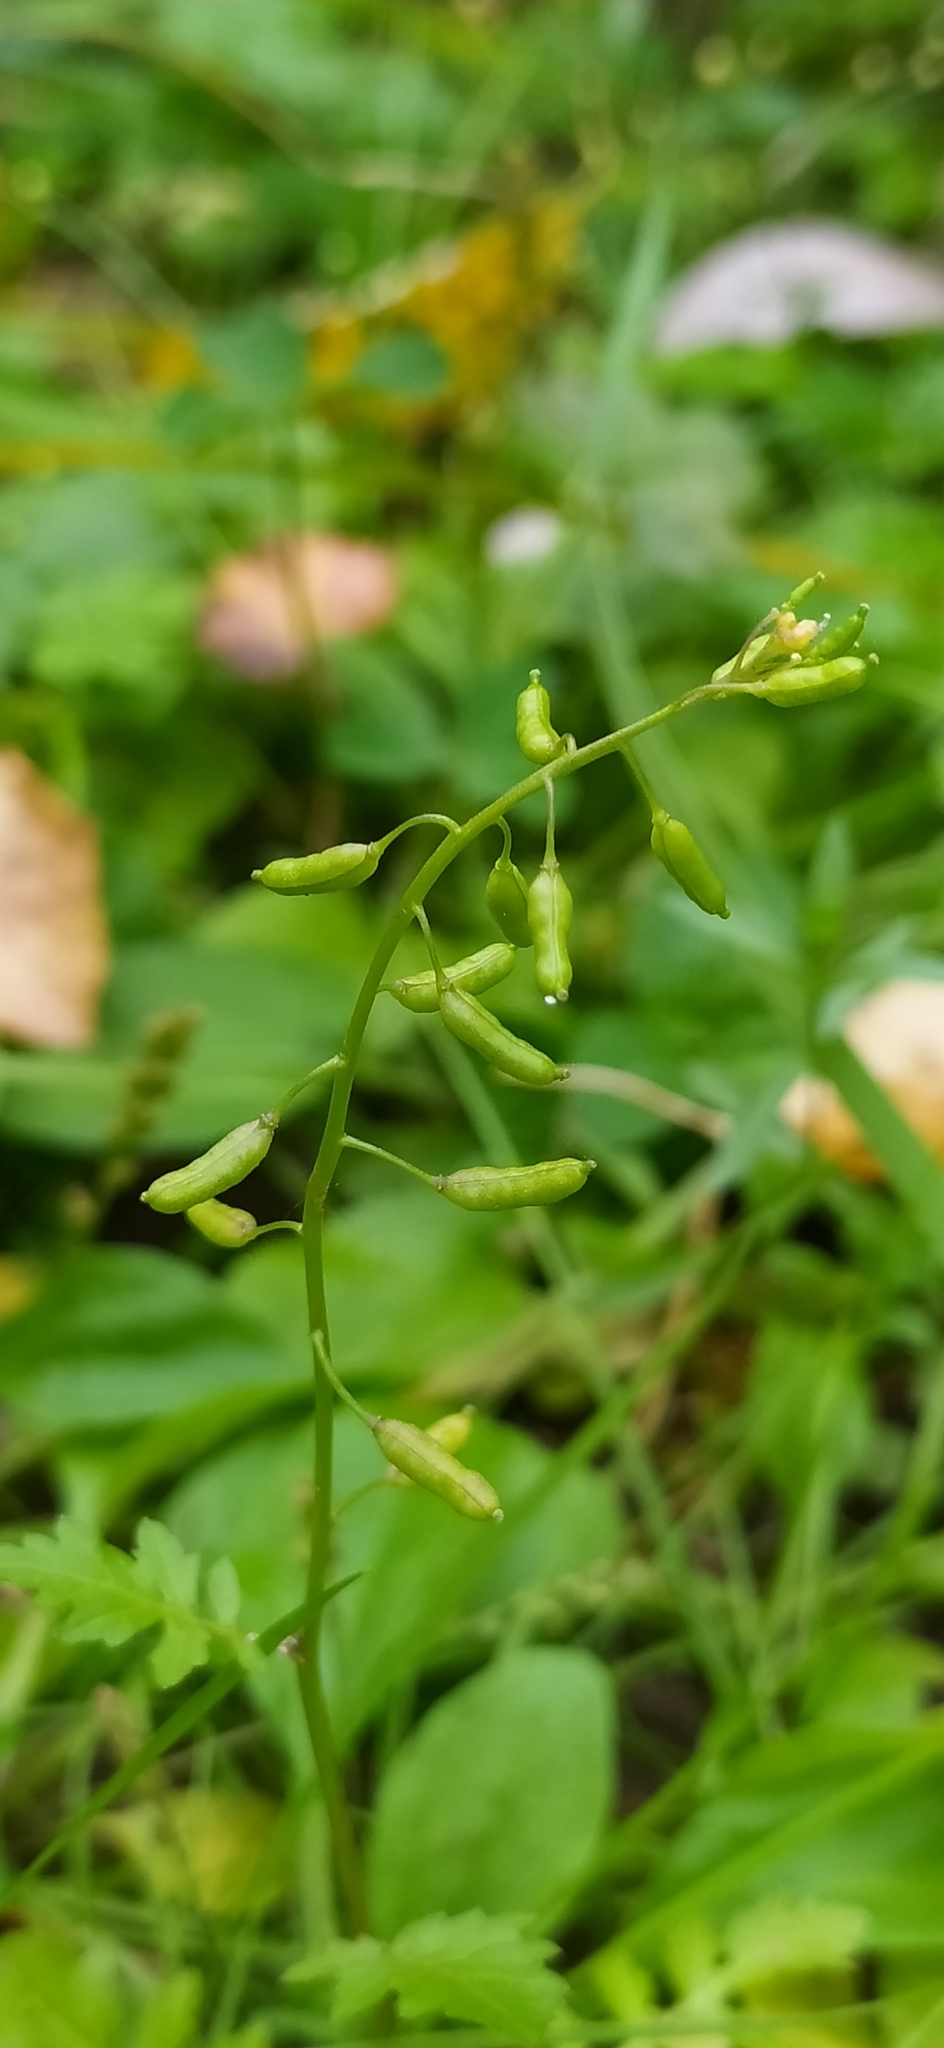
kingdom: Plantae
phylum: Tracheophyta
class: Magnoliopsida
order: Brassicales
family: Brassicaceae
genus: Rorippa
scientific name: Rorippa palustris
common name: Marsh yellow-cress
